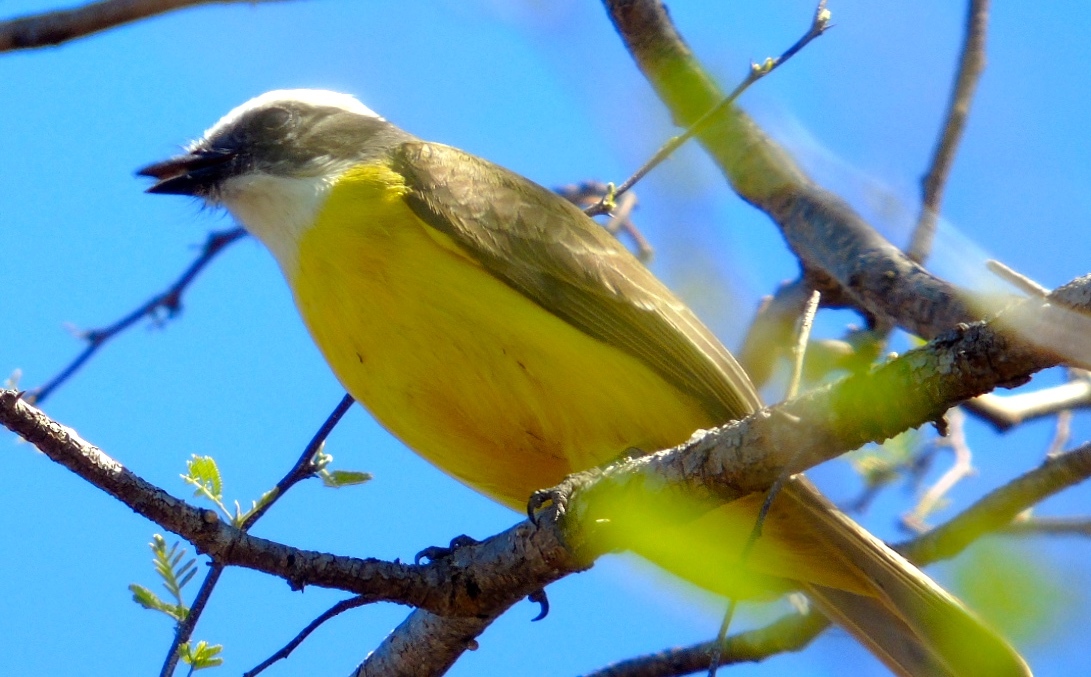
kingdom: Animalia
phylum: Chordata
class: Aves
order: Passeriformes
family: Tyrannidae
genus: Myiozetetes
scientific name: Myiozetetes similis
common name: Social flycatcher
